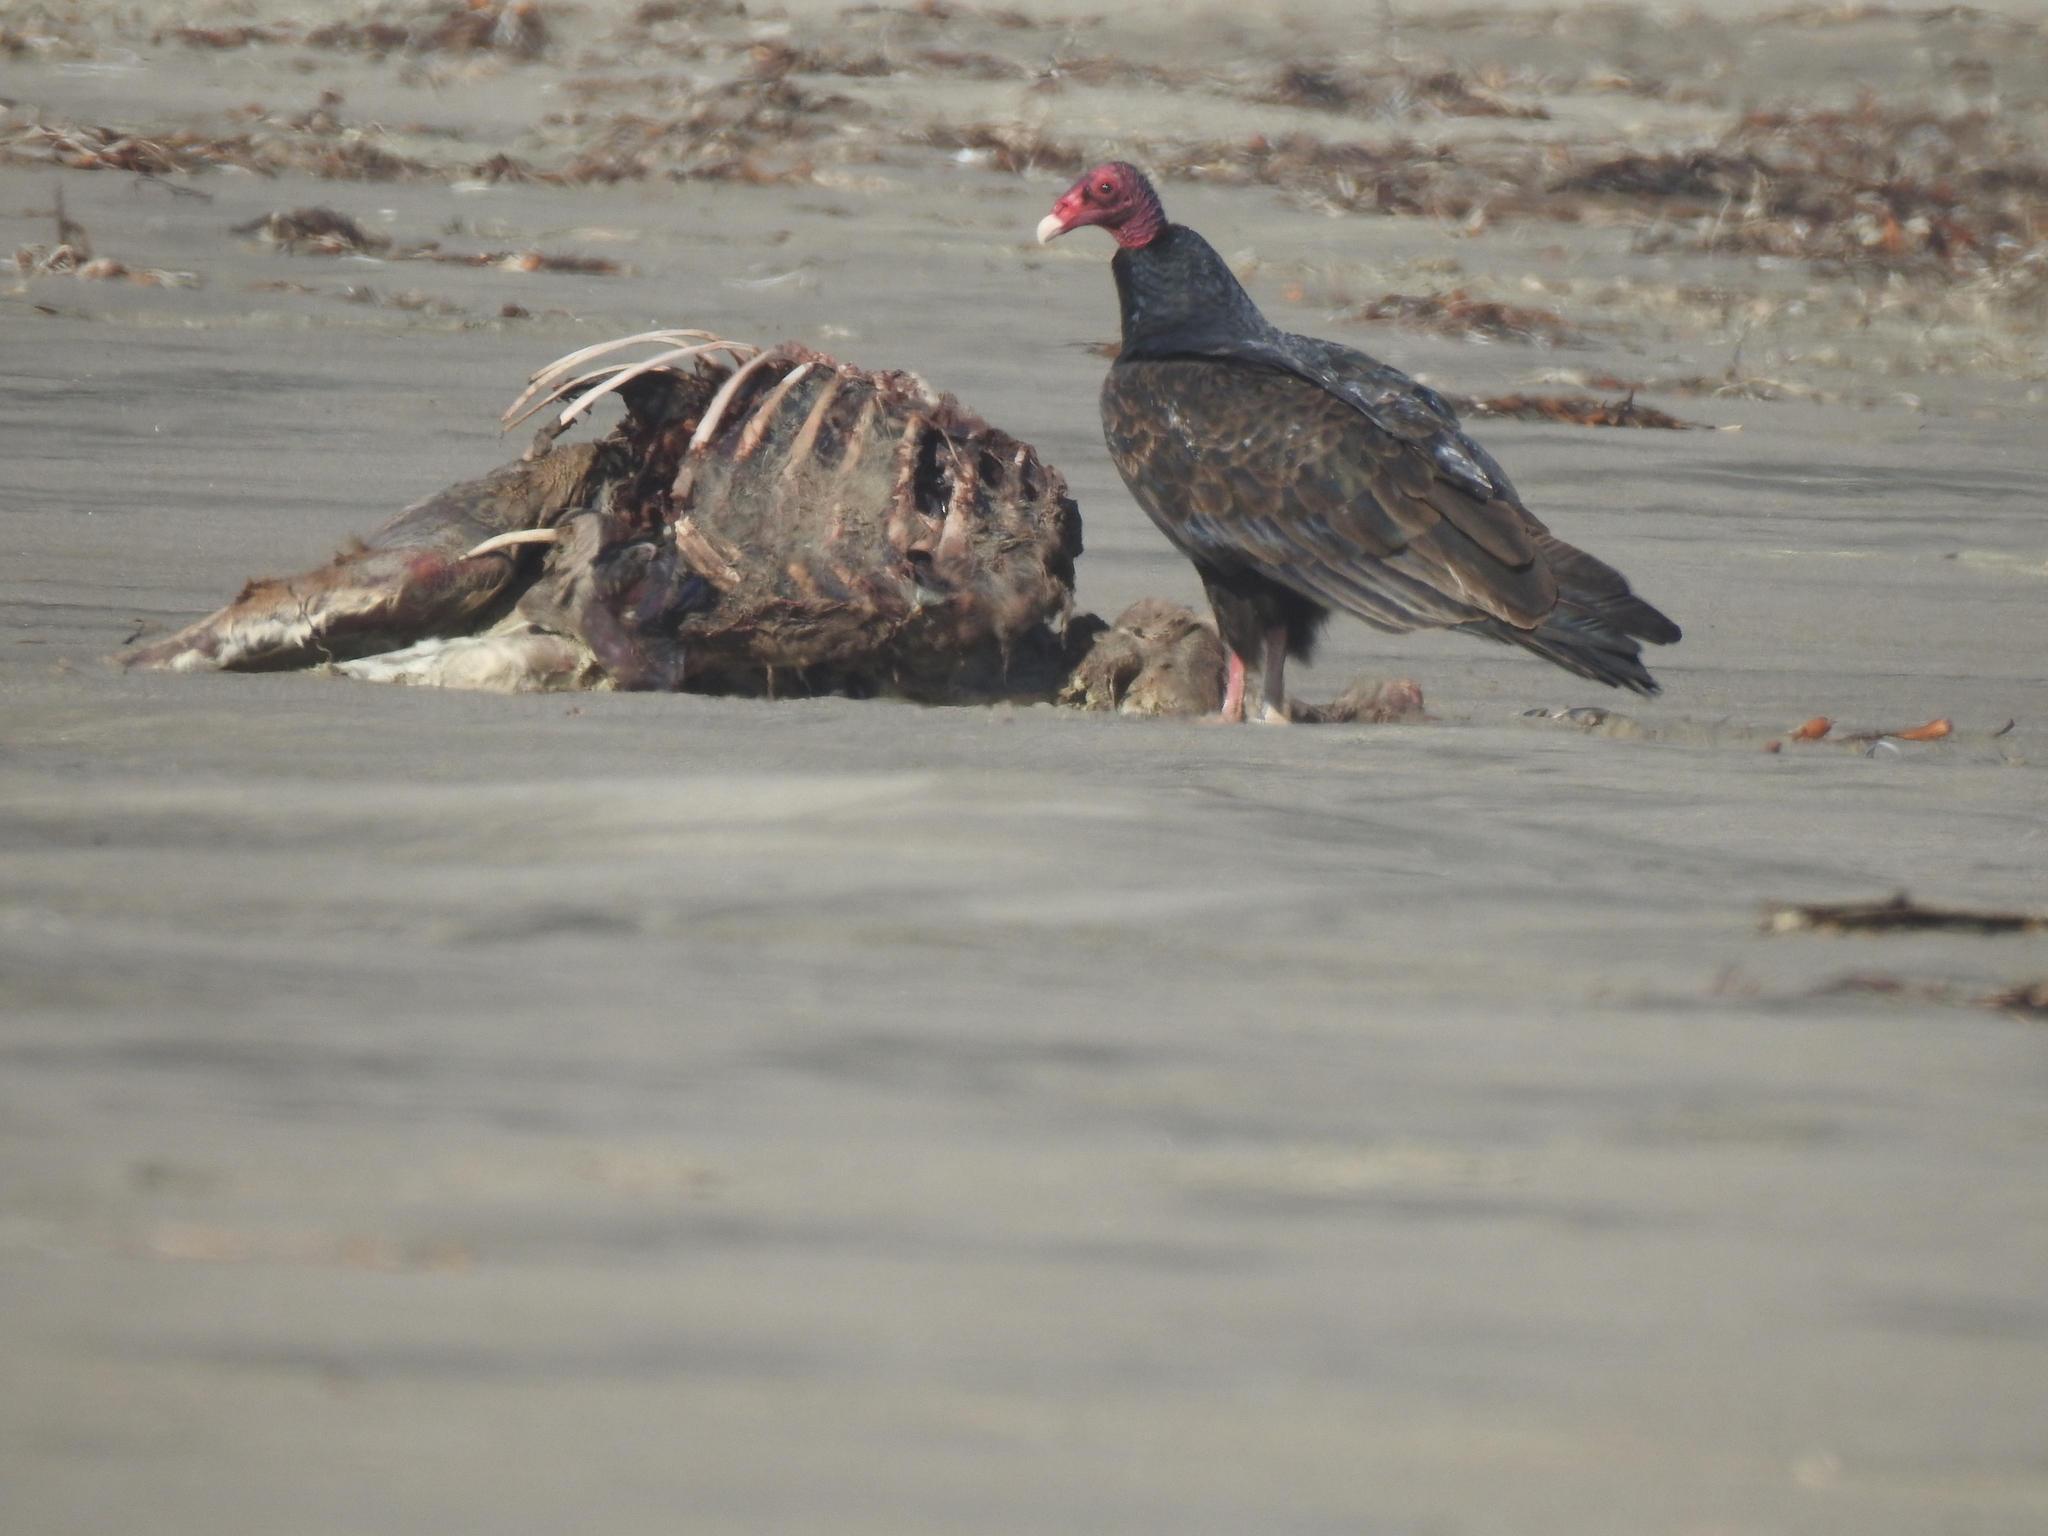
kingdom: Animalia
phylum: Chordata
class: Aves
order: Accipitriformes
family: Cathartidae
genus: Cathartes
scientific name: Cathartes aura
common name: Turkey vulture
